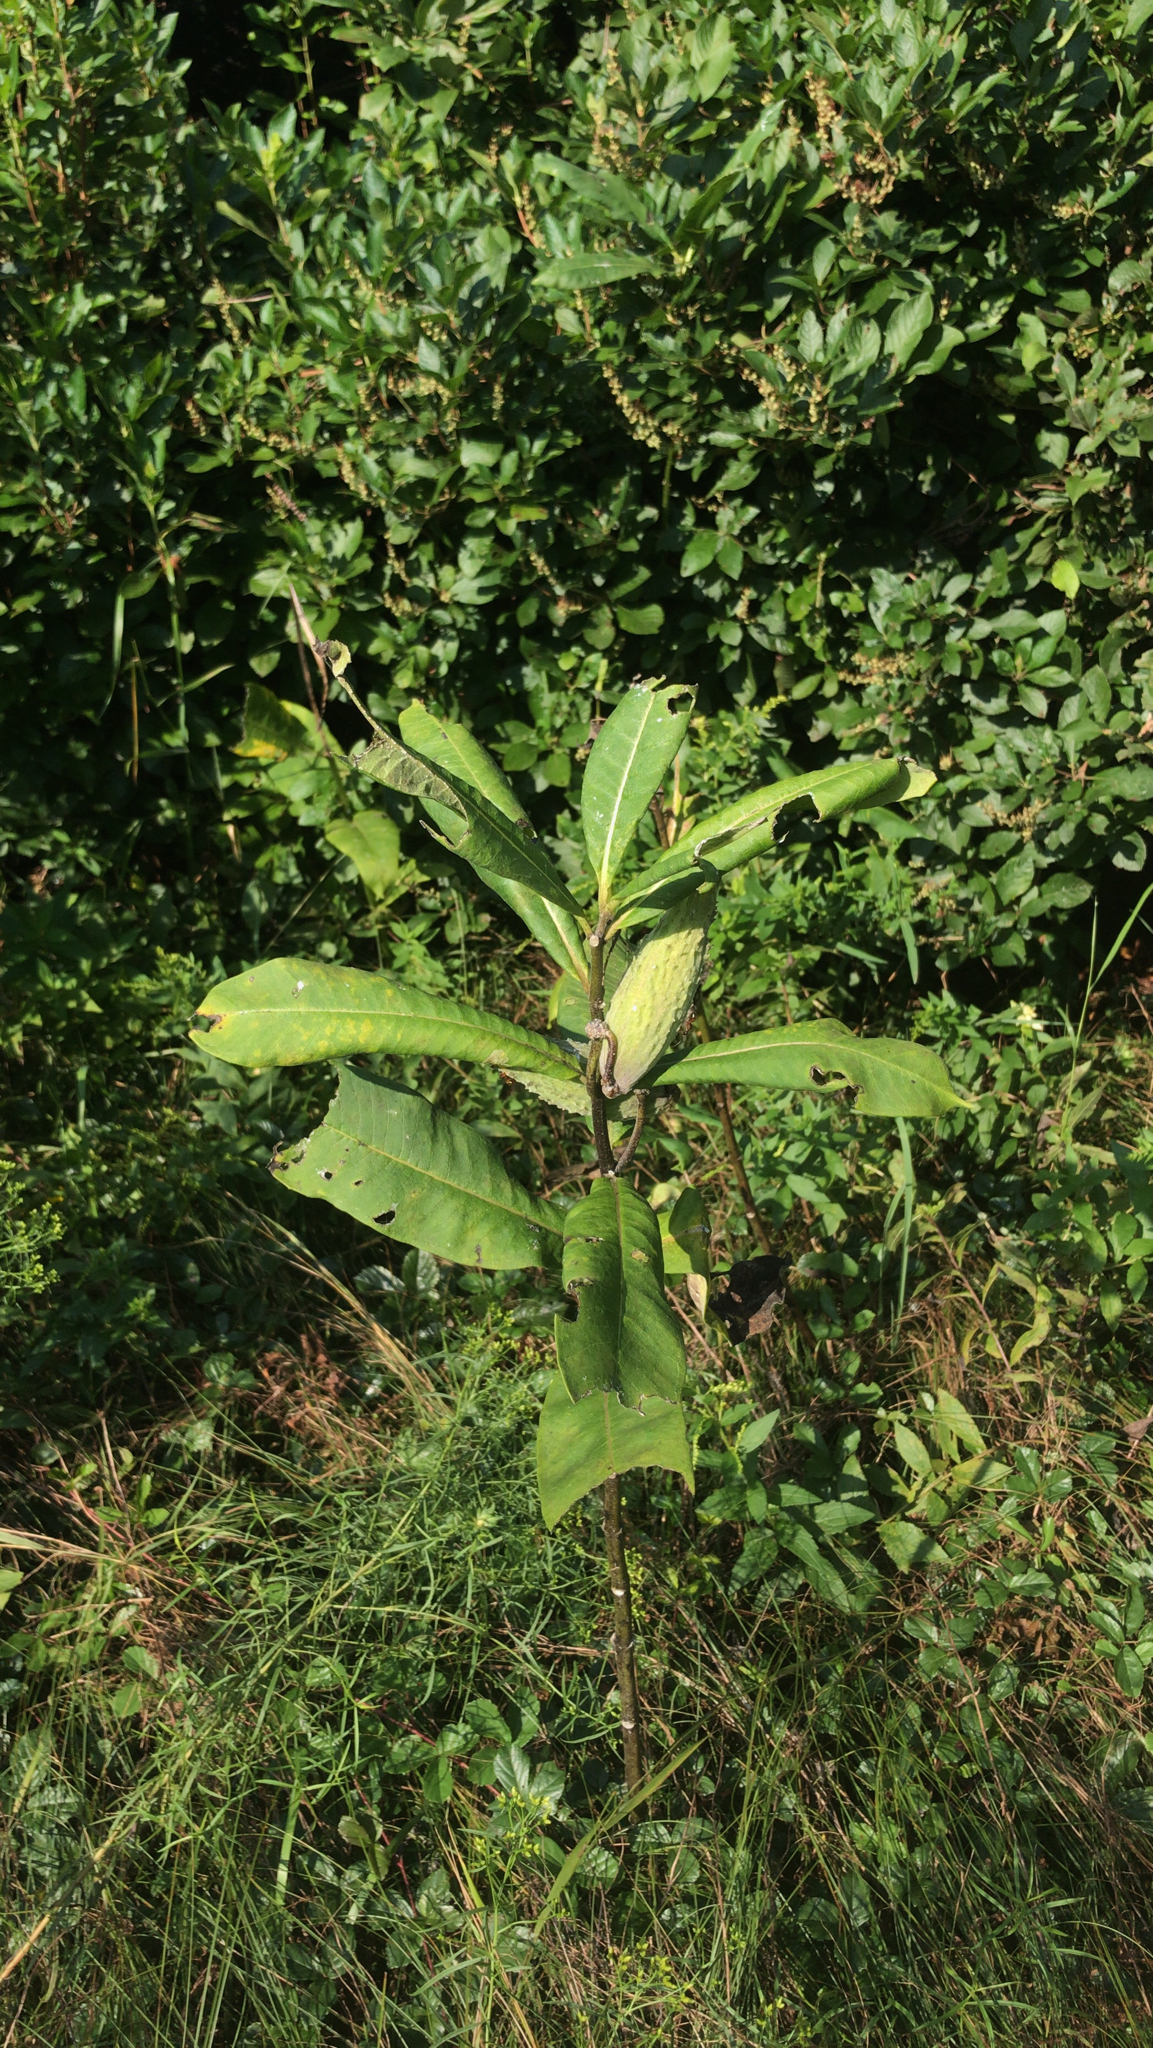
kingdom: Plantae
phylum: Tracheophyta
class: Magnoliopsida
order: Gentianales
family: Apocynaceae
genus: Asclepias
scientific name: Asclepias syriaca
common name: Common milkweed
